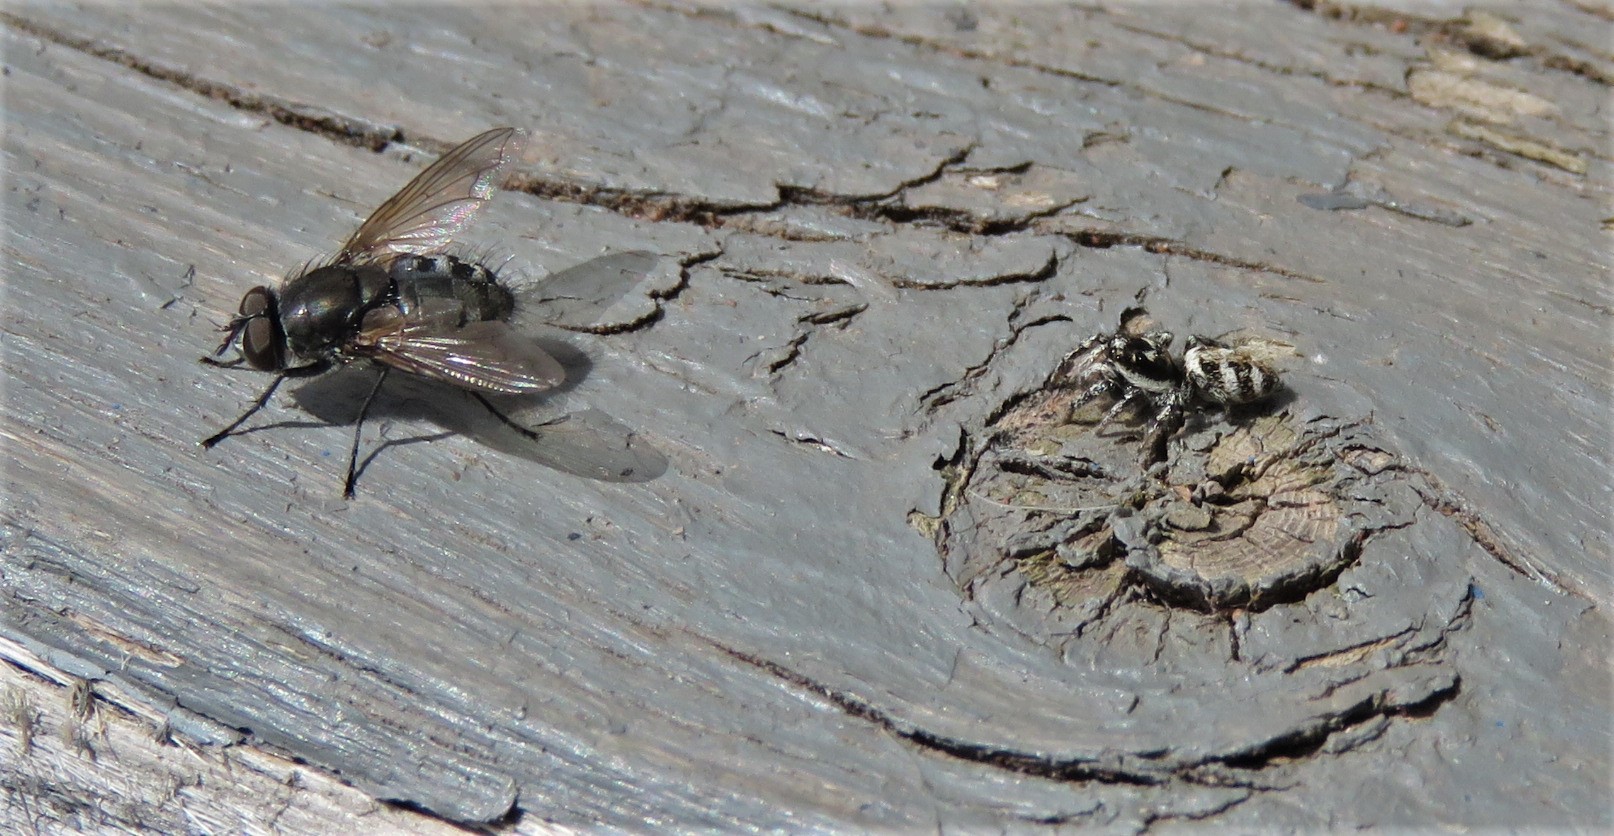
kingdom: Animalia
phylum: Arthropoda
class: Insecta
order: Diptera
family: Polleniidae
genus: Pollenia
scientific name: Pollenia
